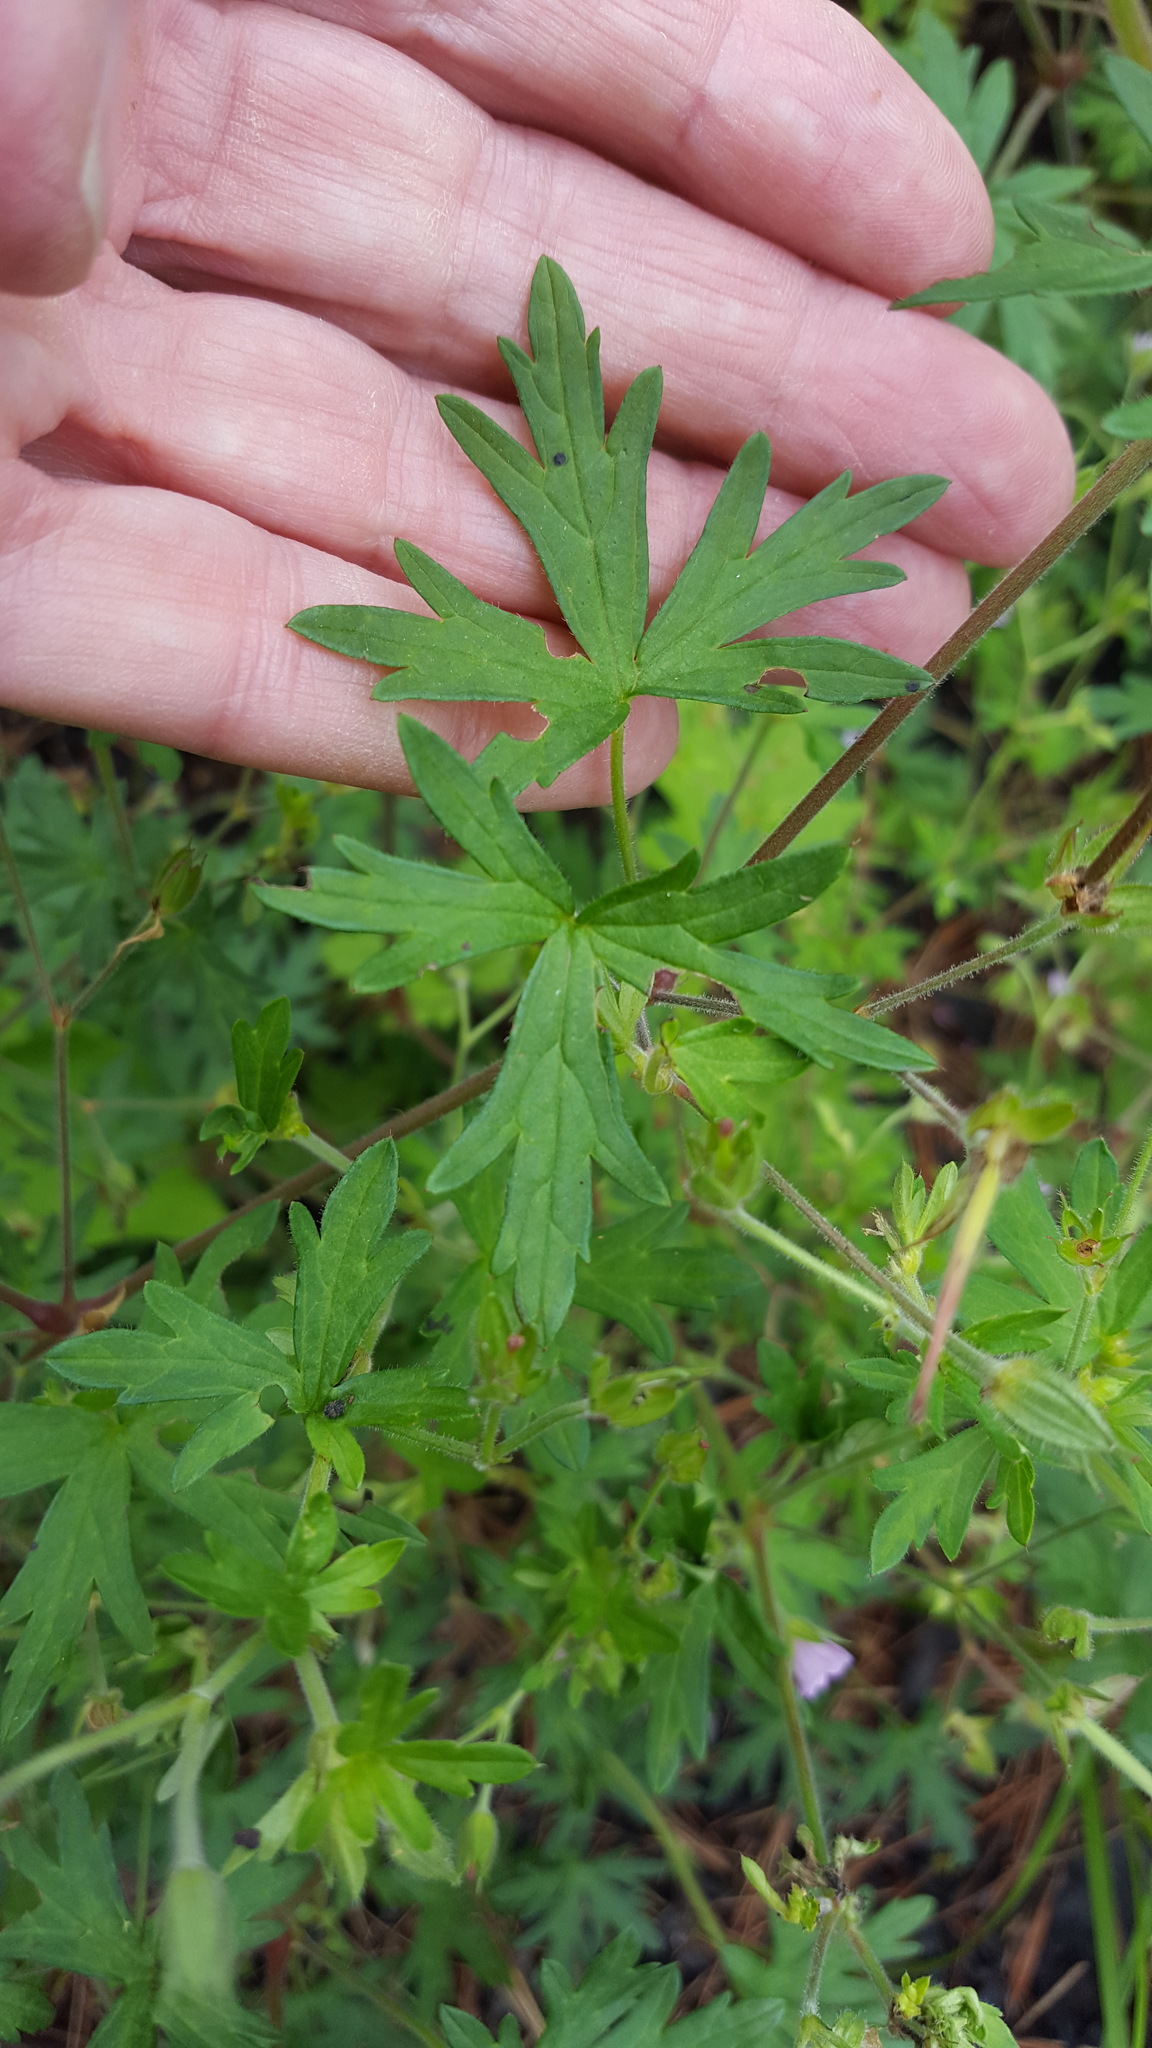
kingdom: Plantae
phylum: Tracheophyta
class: Magnoliopsida
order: Geraniales
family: Geraniaceae
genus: Geranium
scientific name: Geranium bicknellii
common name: Bicknell's cranesbill
